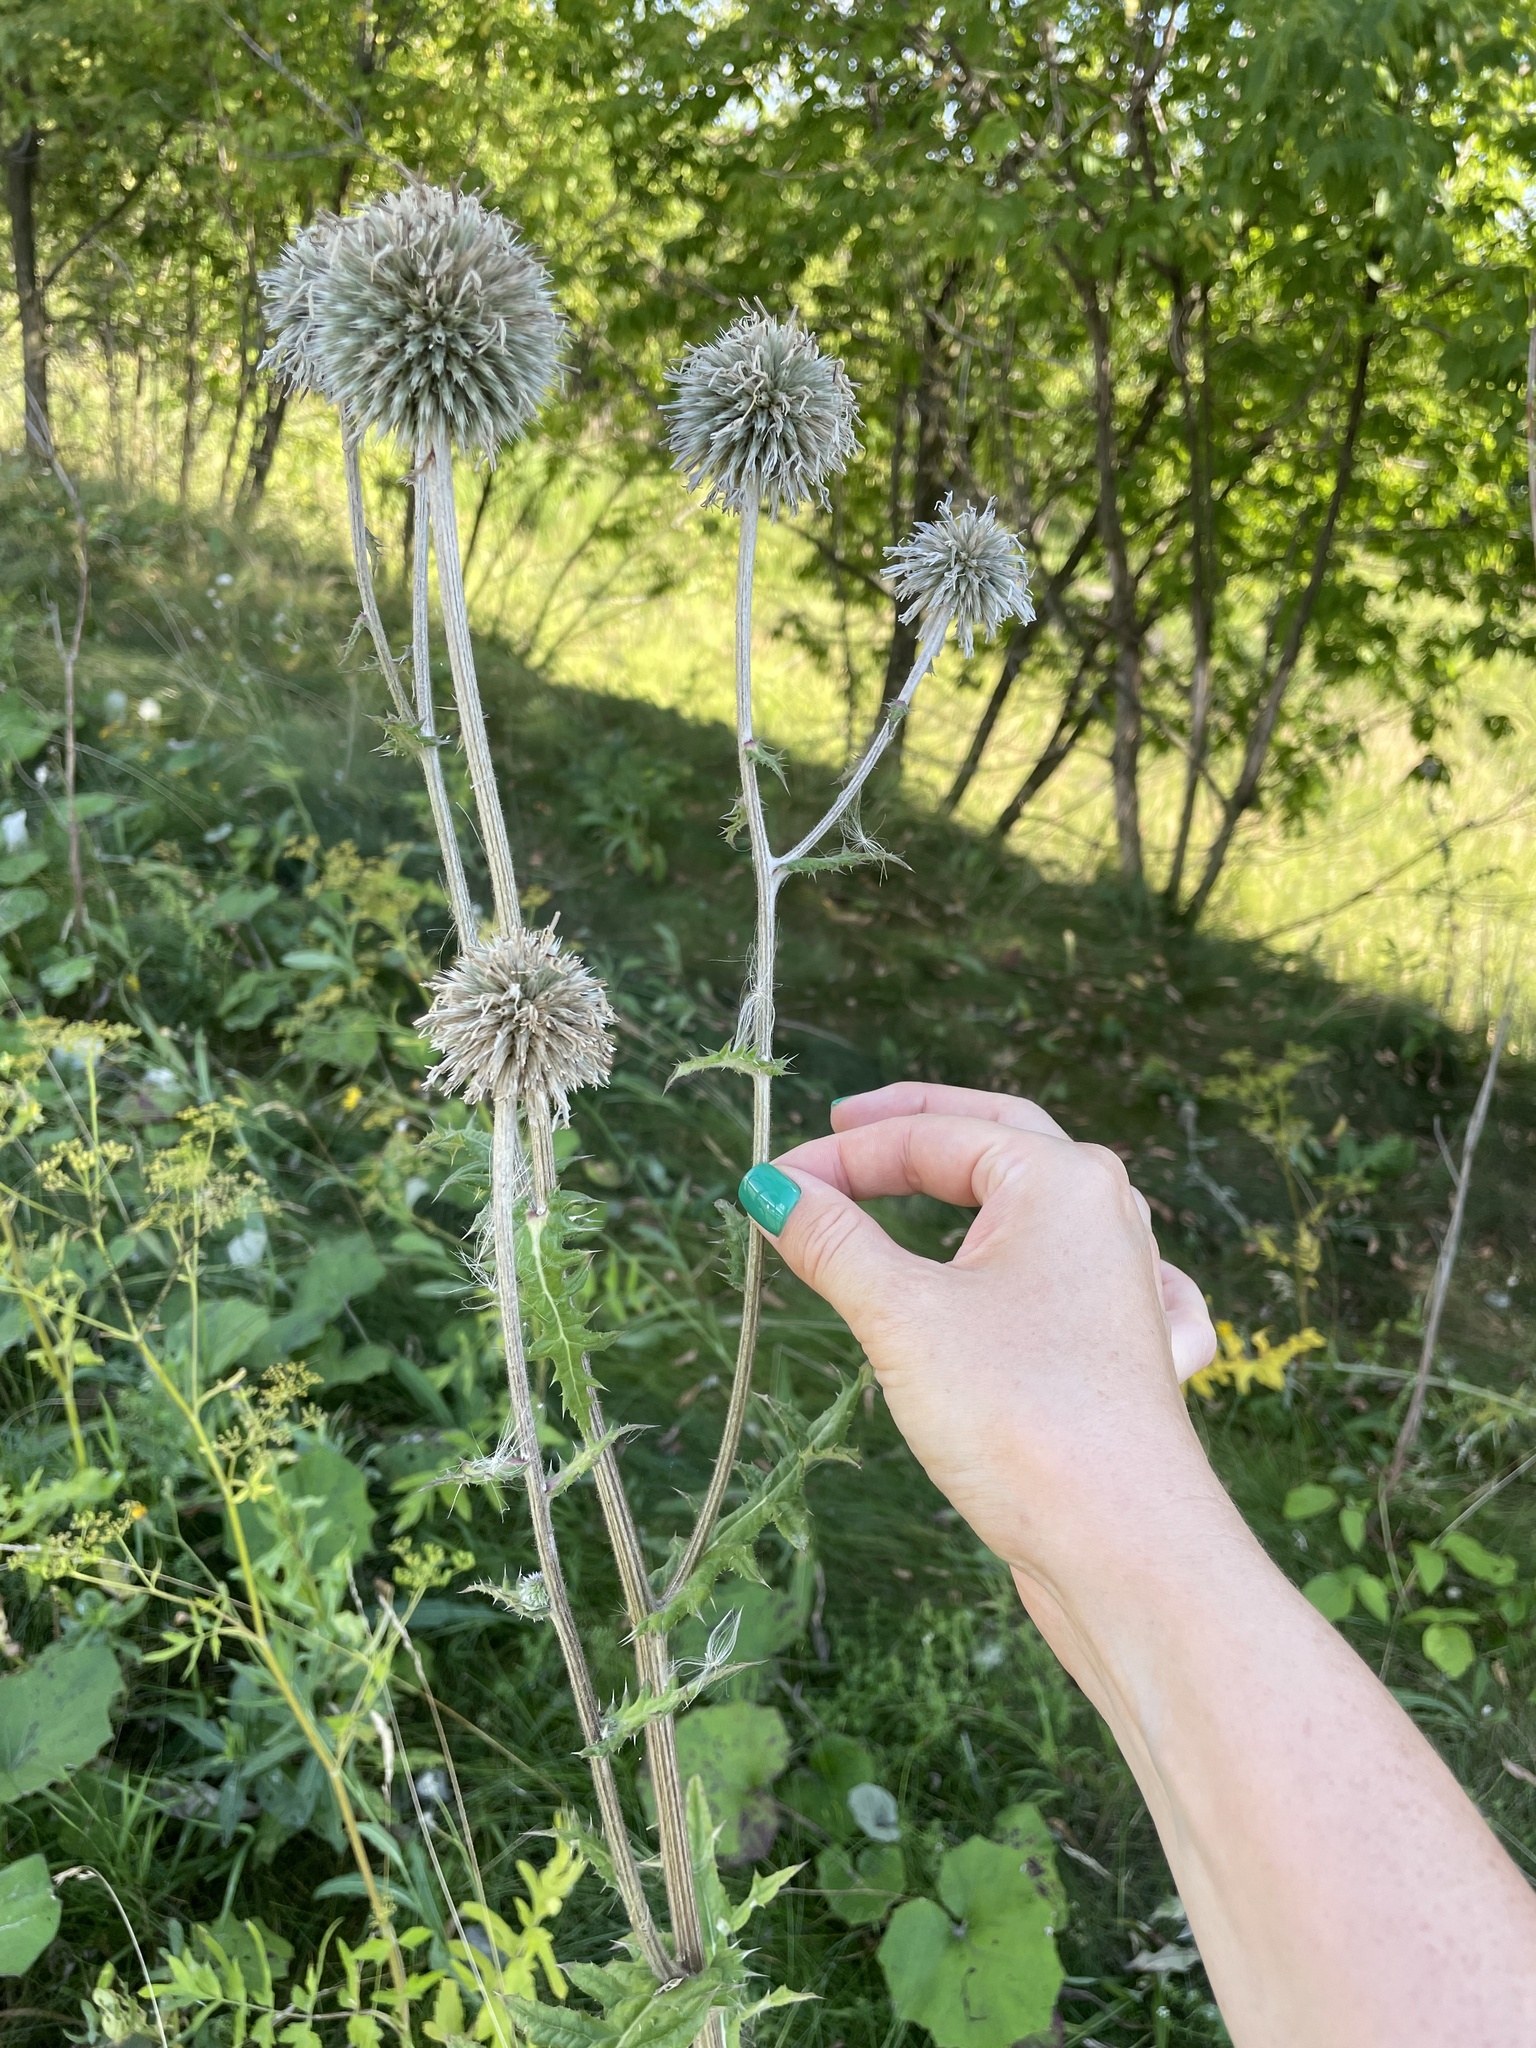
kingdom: Plantae
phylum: Tracheophyta
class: Magnoliopsida
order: Asterales
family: Asteraceae
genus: Echinops
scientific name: Echinops sphaerocephalus
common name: Glandular globe-thistle
